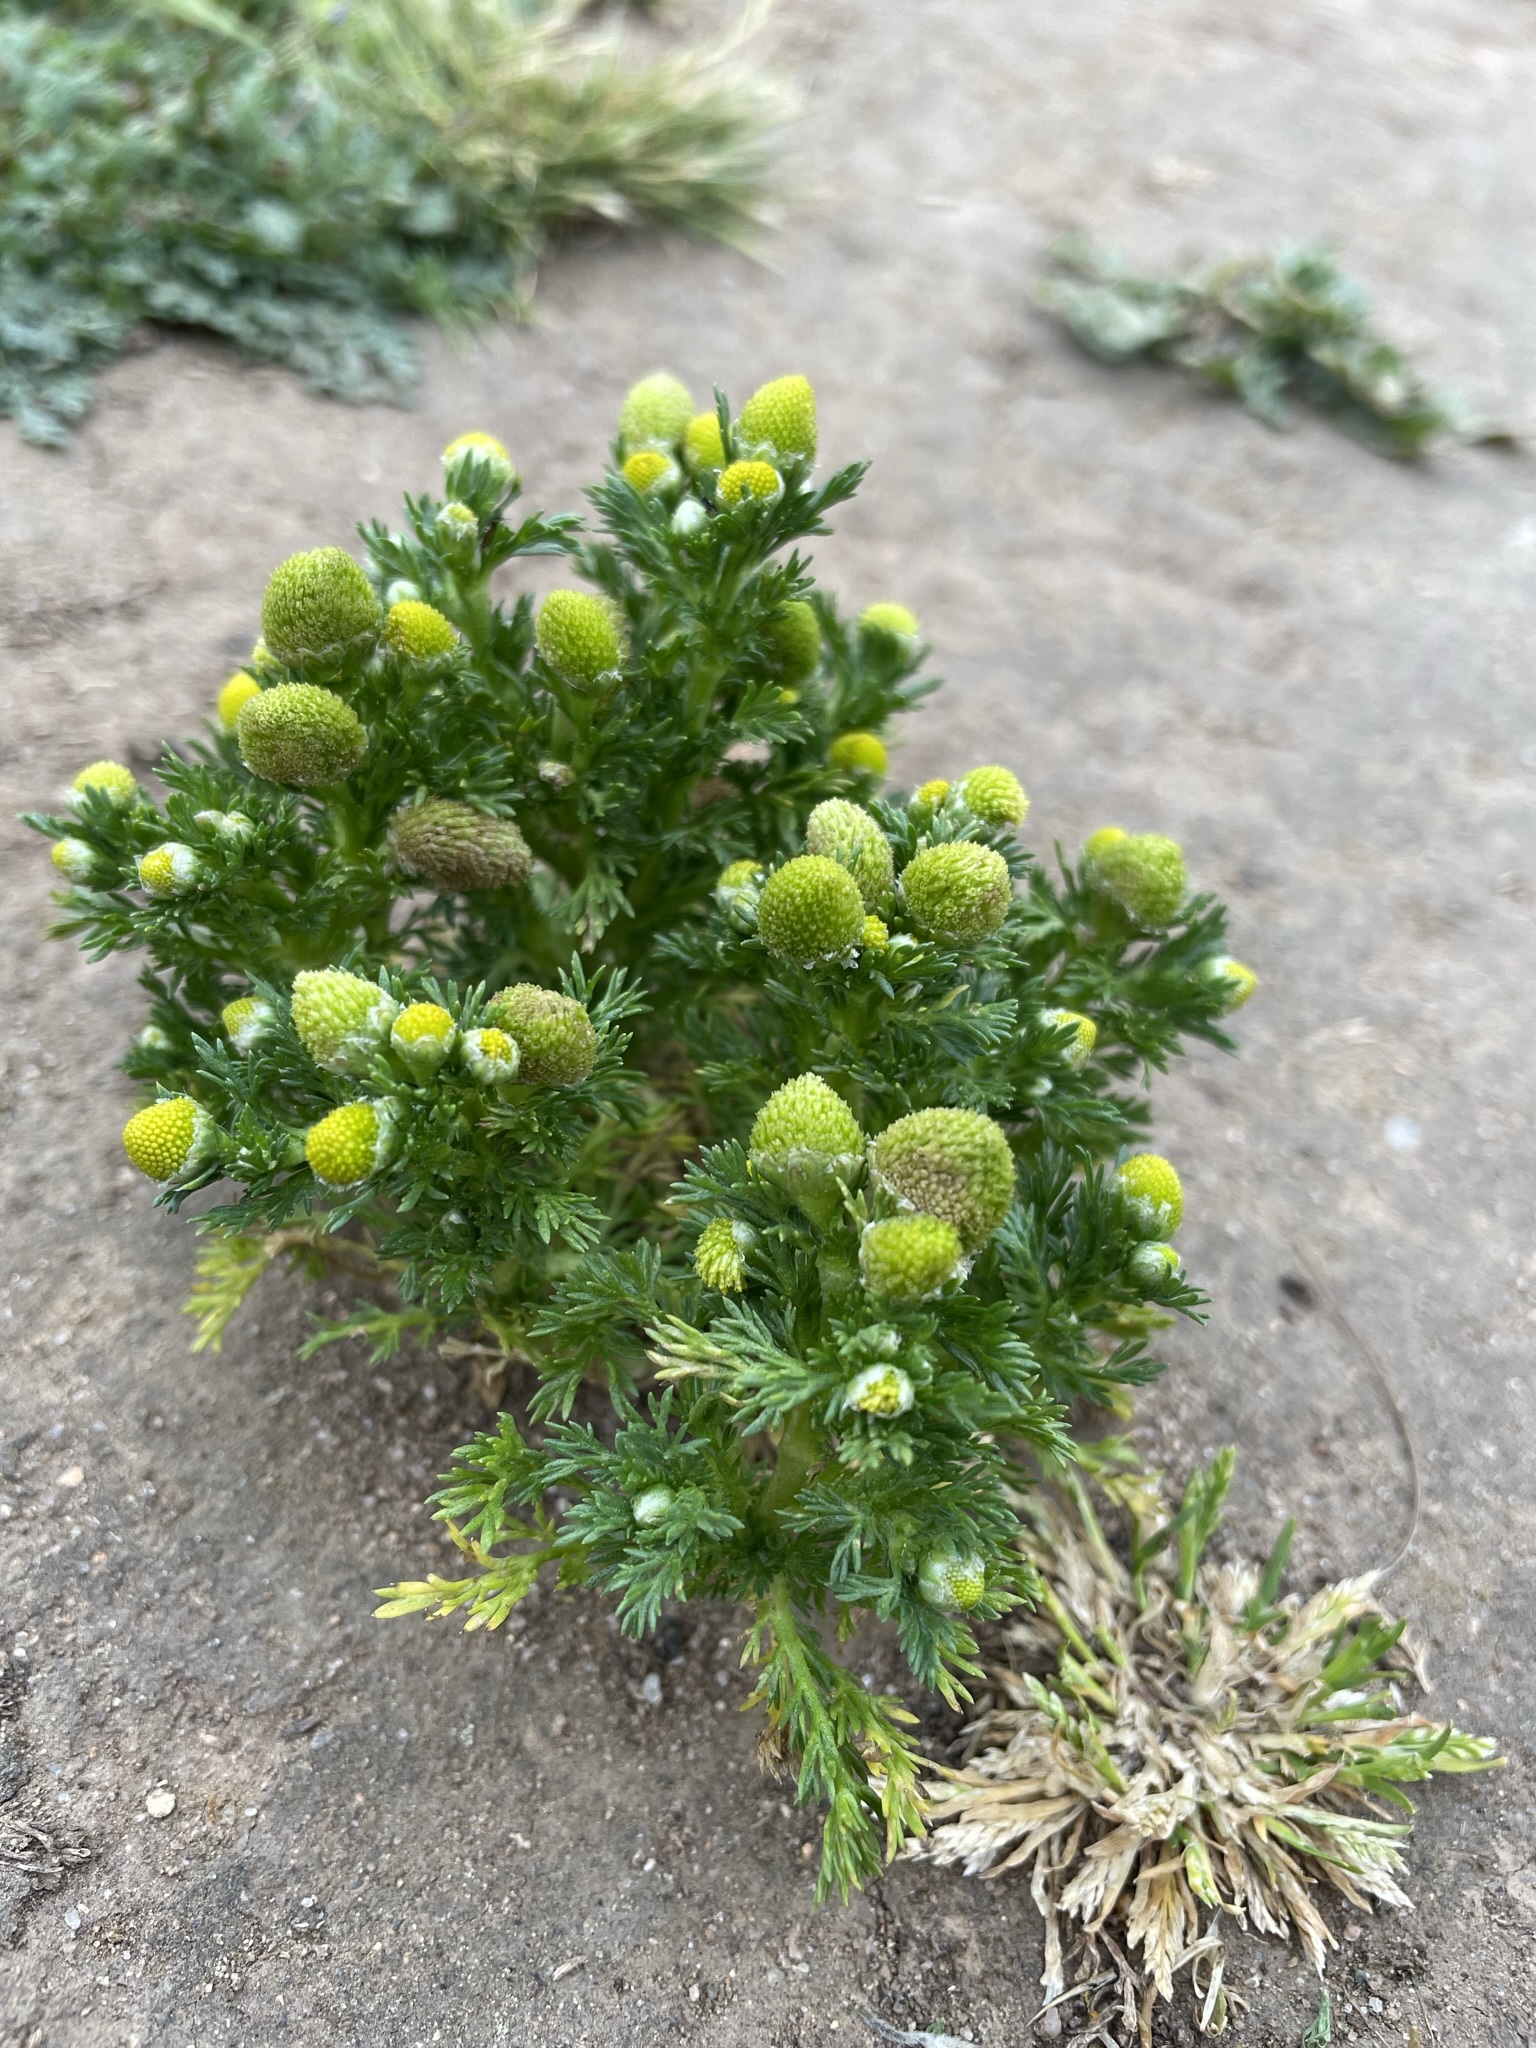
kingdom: Plantae
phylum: Tracheophyta
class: Magnoliopsida
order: Asterales
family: Asteraceae
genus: Matricaria
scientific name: Matricaria discoidea
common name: Disc mayweed
